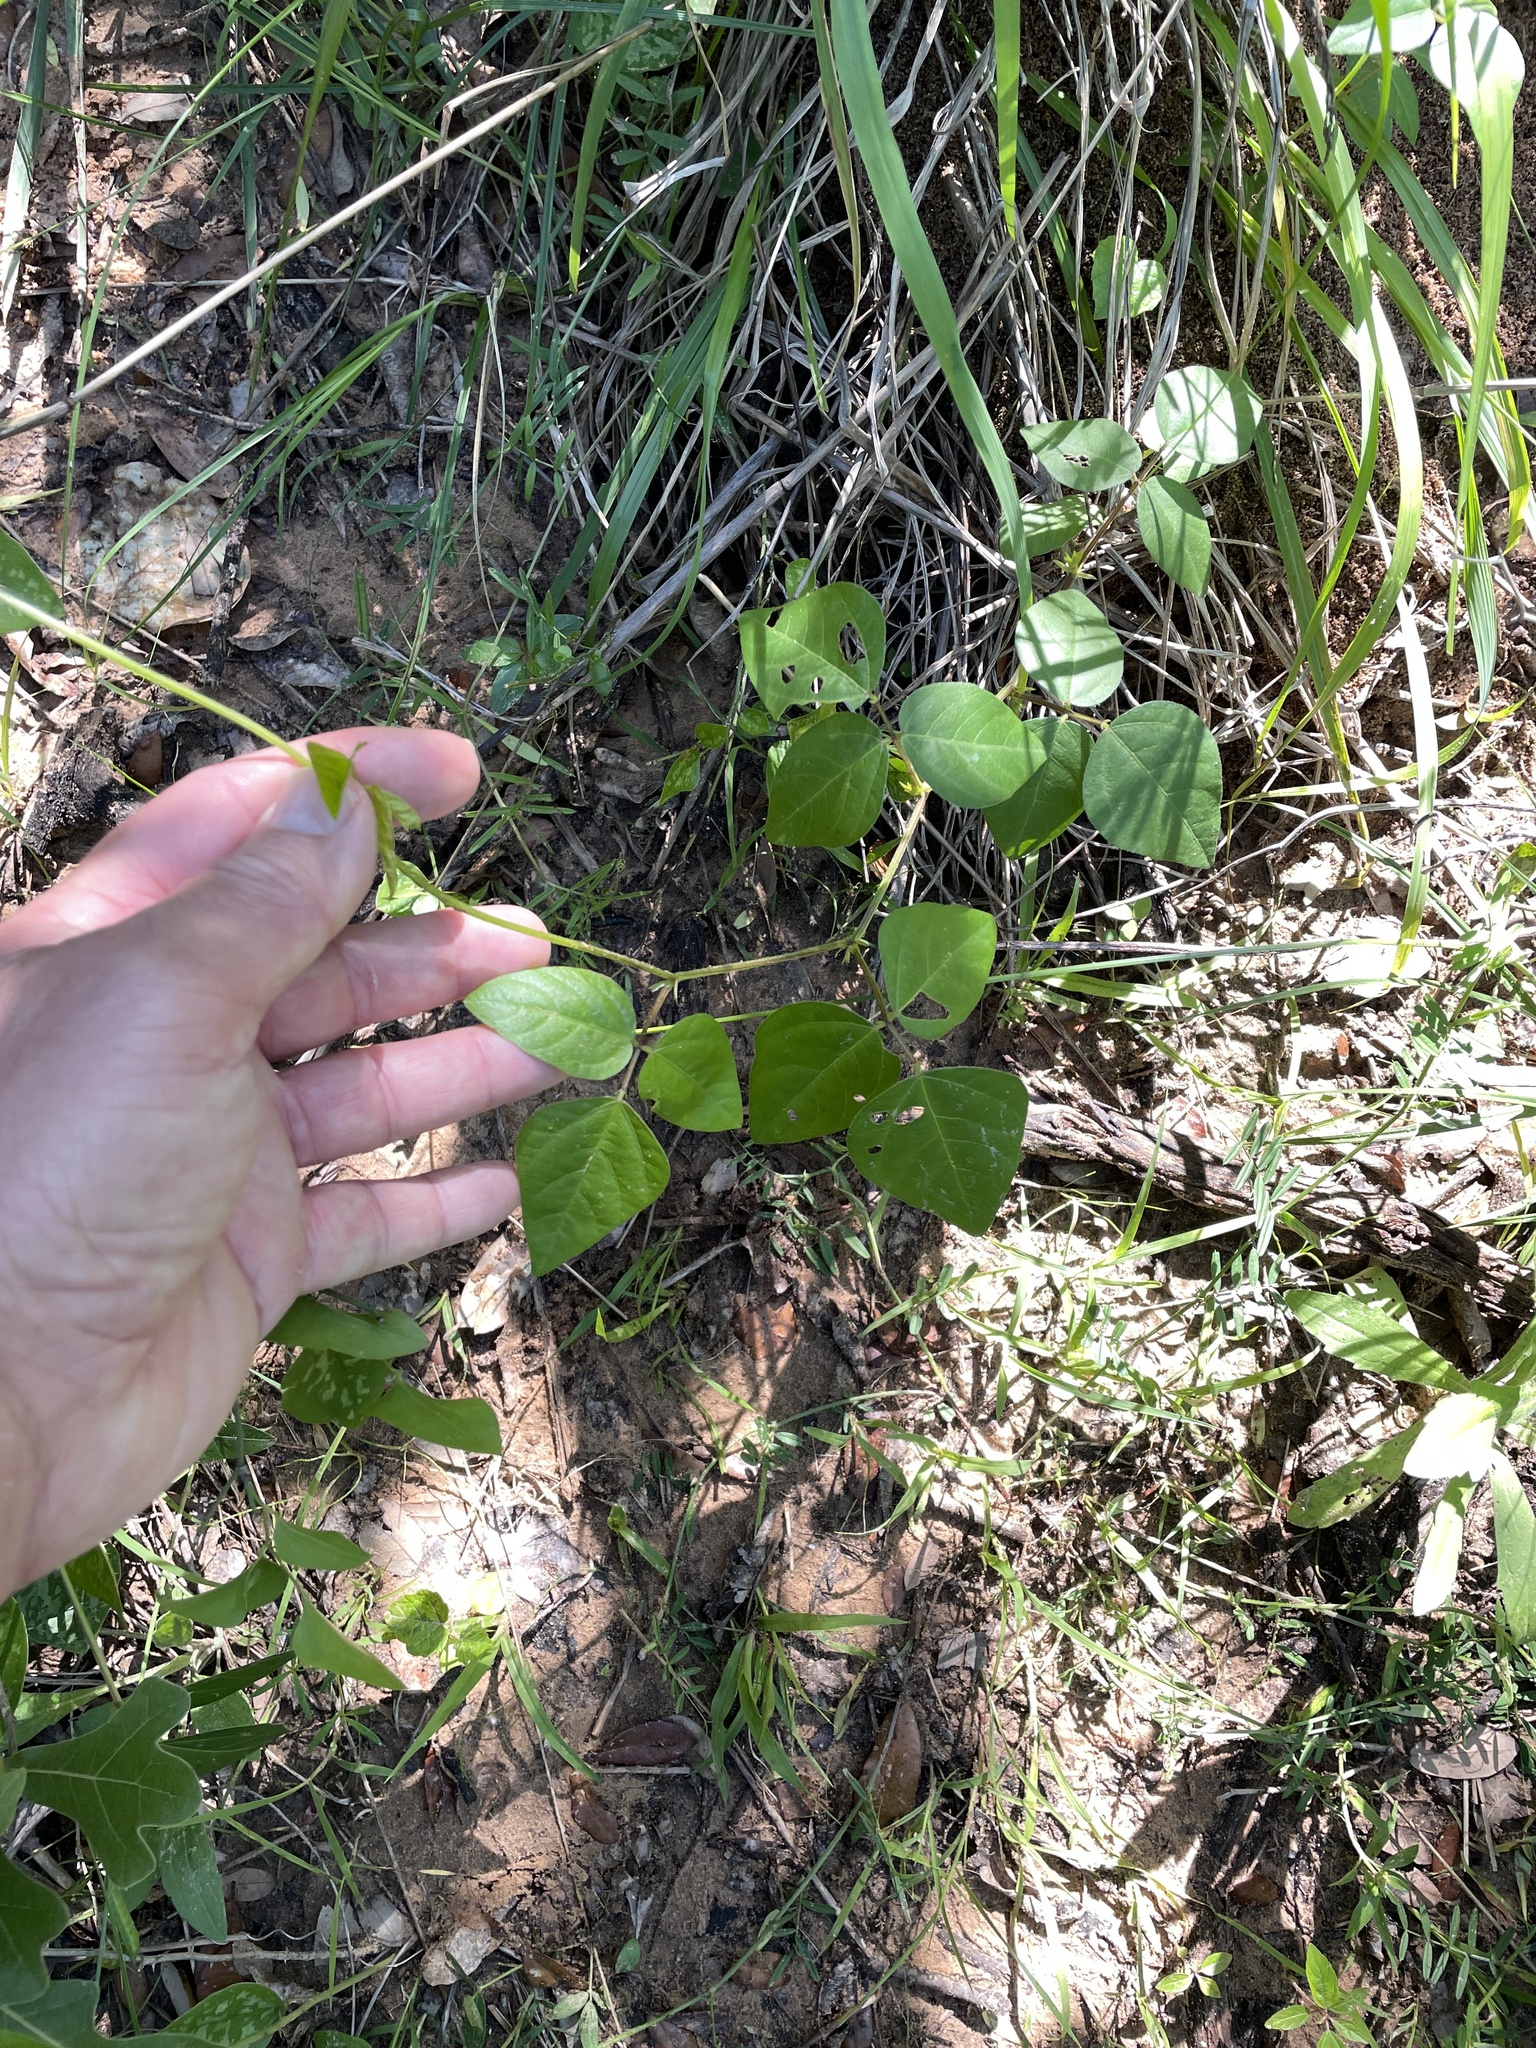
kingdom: Plantae
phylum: Tracheophyta
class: Magnoliopsida
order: Fabales
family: Fabaceae
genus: Strophostyles
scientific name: Strophostyles helvola
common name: Trailing wild bean
